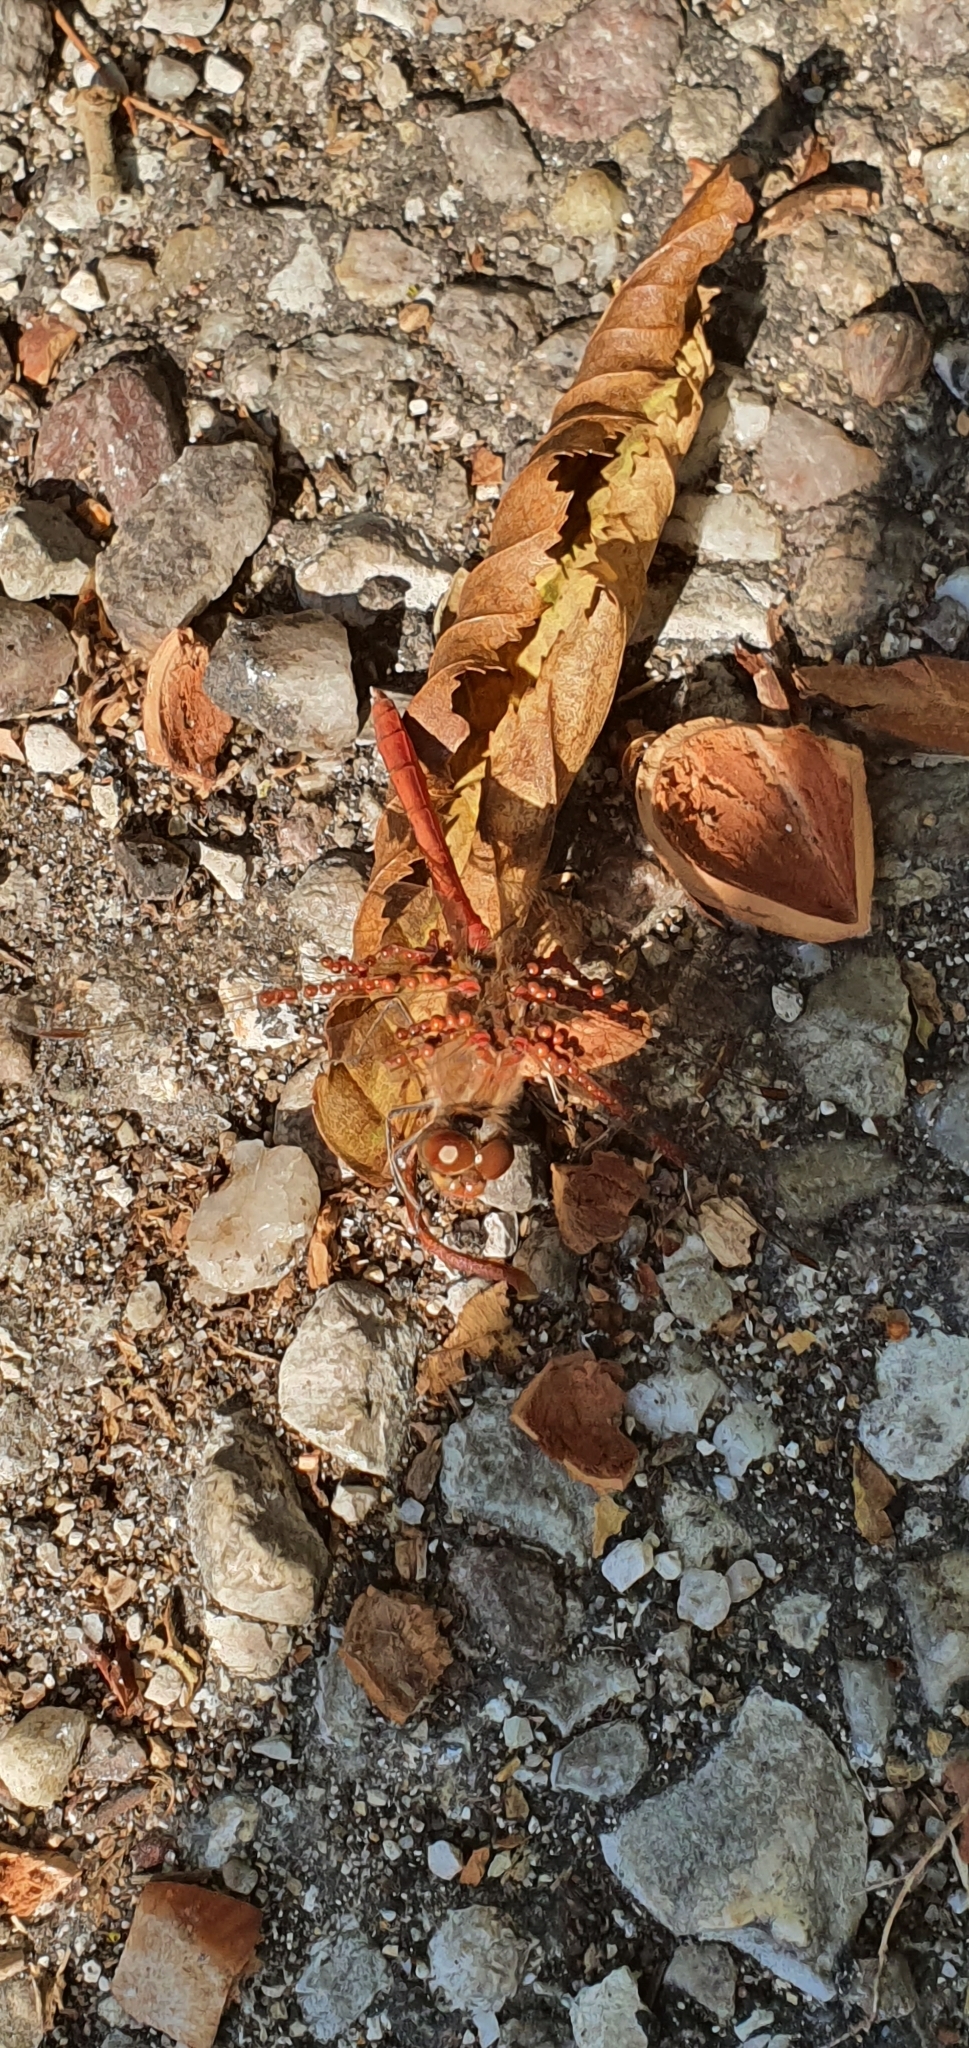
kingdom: Animalia
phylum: Arthropoda
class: Insecta
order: Odonata
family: Libellulidae
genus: Sympetrum
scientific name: Sympetrum meridionale
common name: Southern darter
